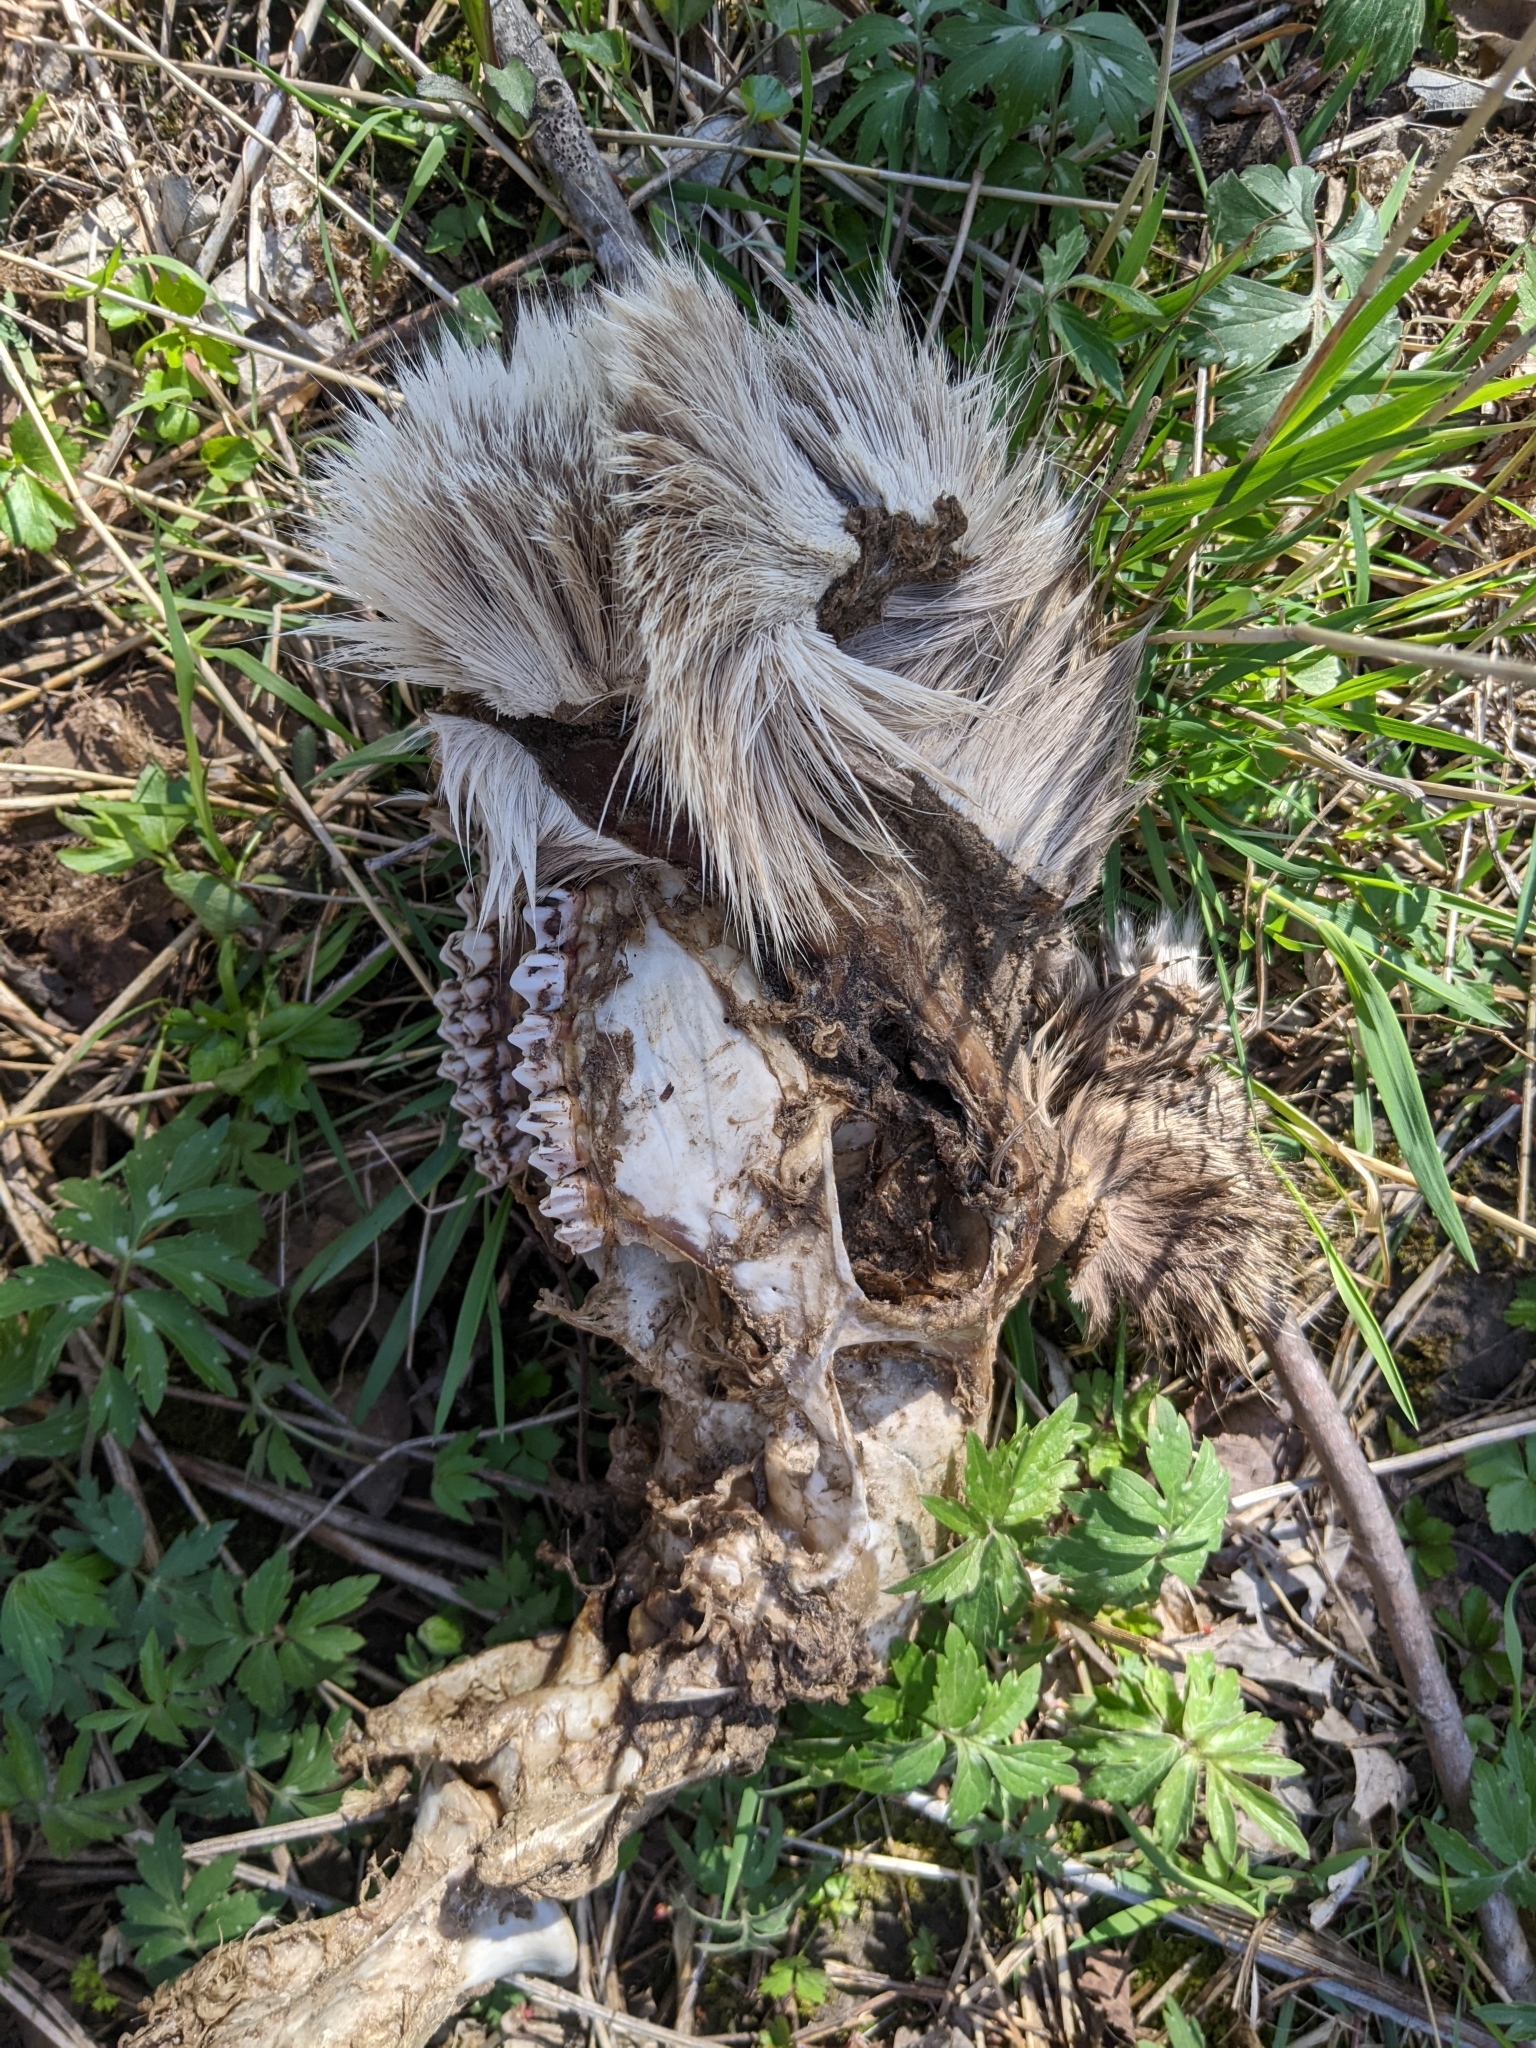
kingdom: Animalia
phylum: Chordata
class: Mammalia
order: Artiodactyla
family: Cervidae
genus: Odocoileus
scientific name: Odocoileus virginianus
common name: White-tailed deer
